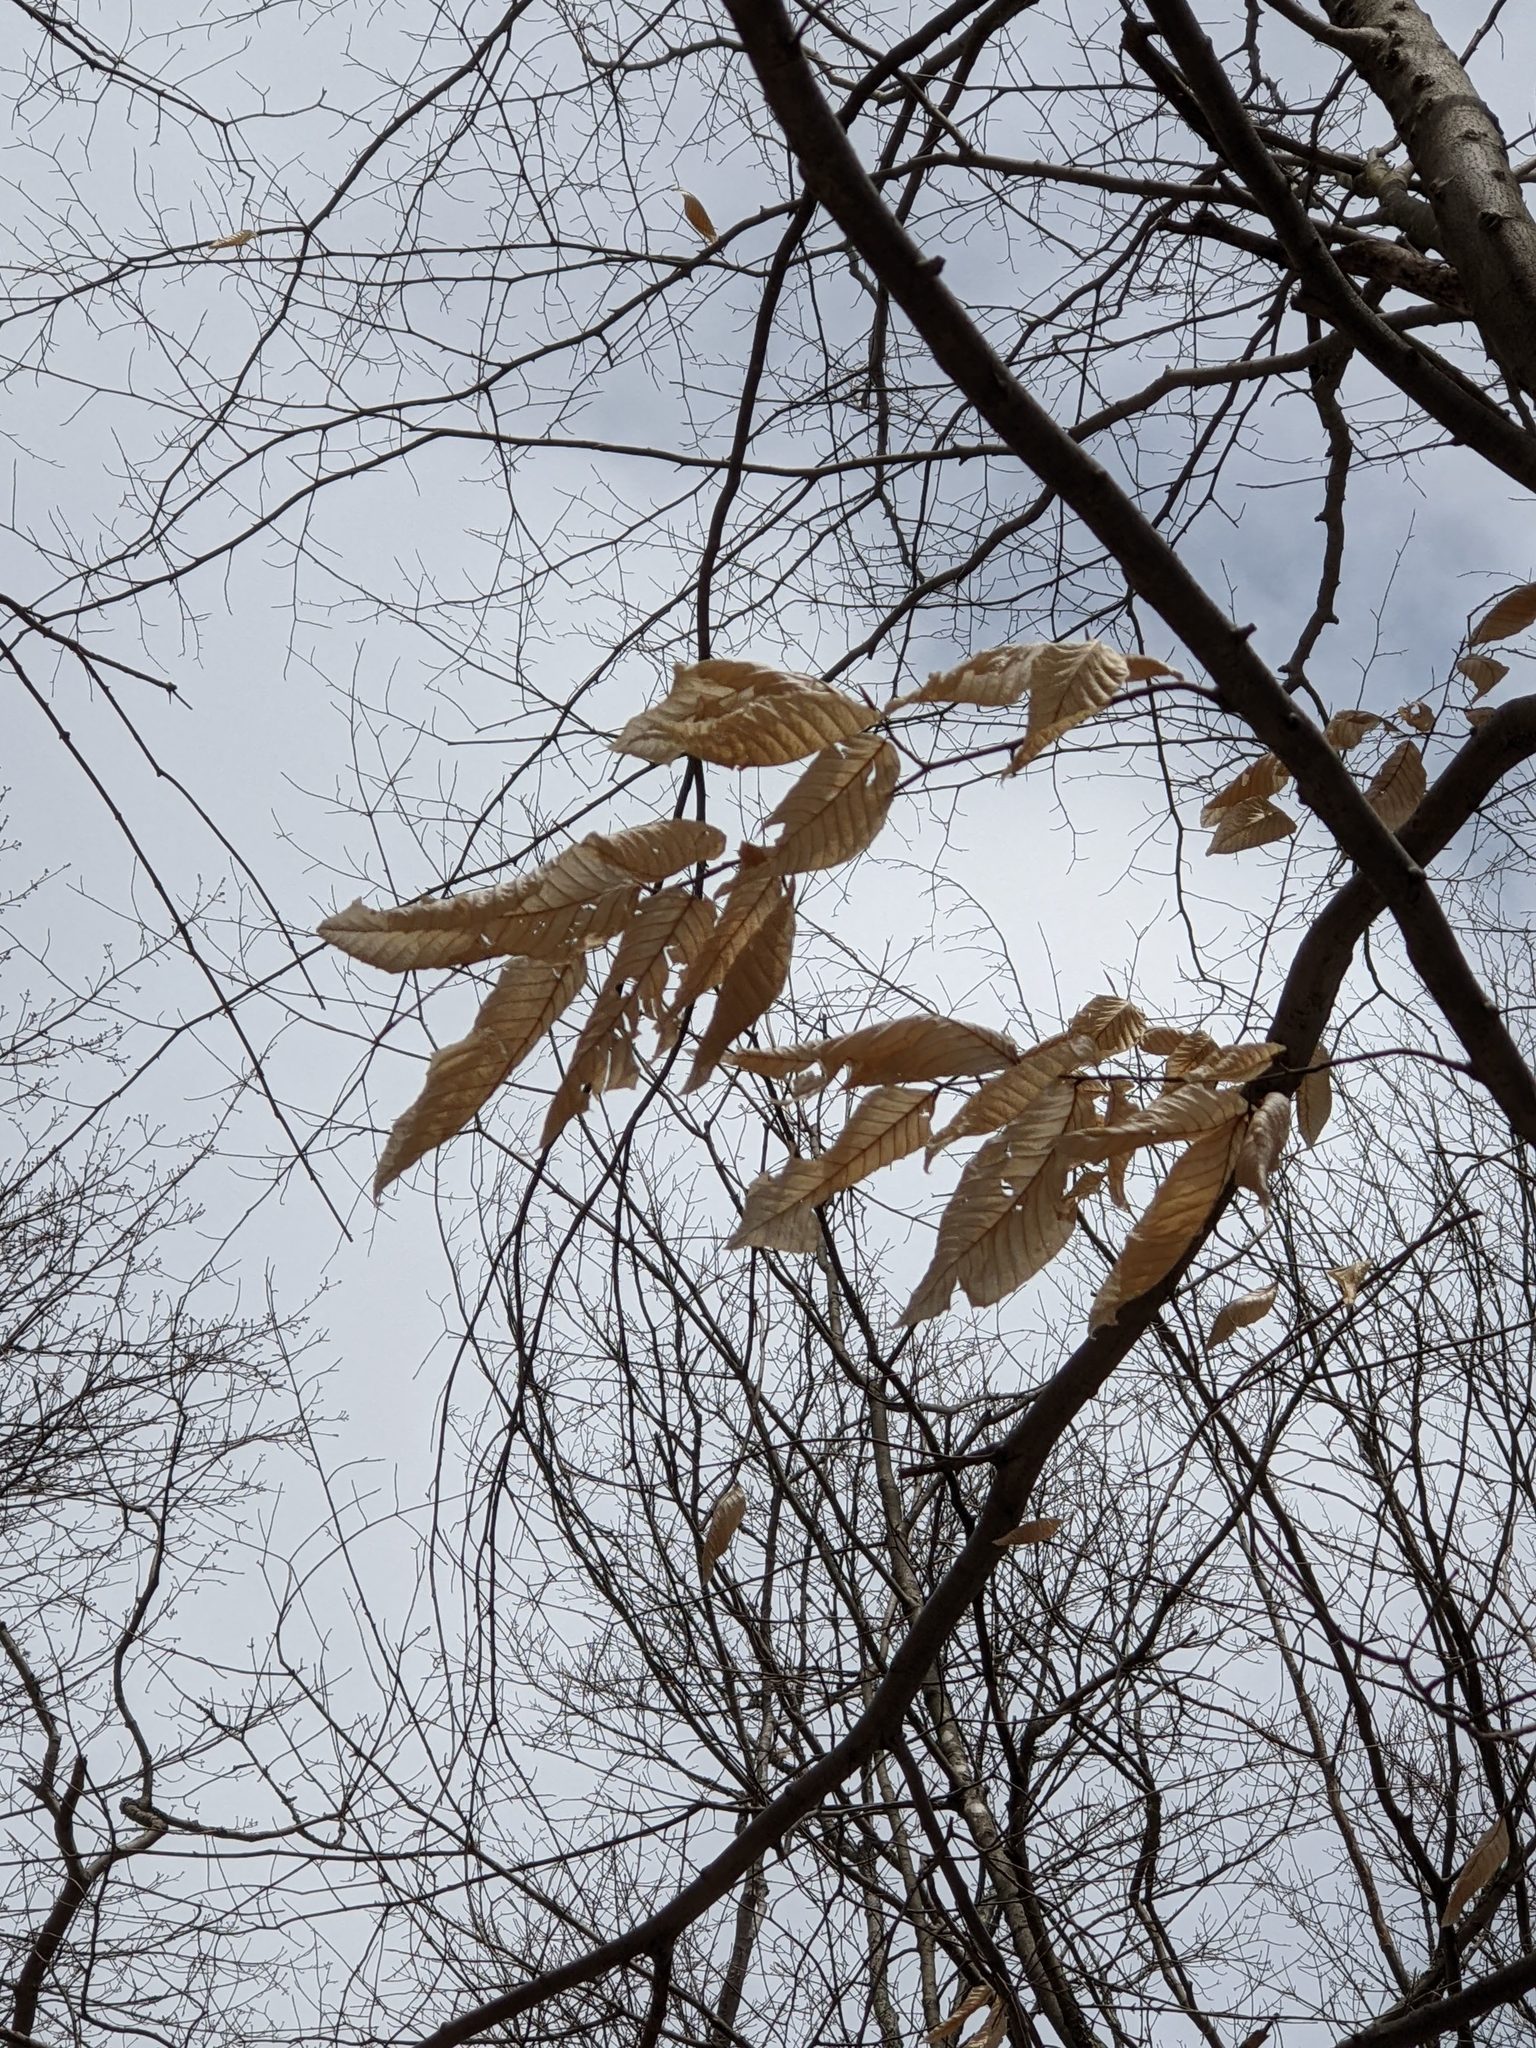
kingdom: Plantae
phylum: Tracheophyta
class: Magnoliopsida
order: Fagales
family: Fagaceae
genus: Fagus
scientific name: Fagus grandifolia
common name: American beech
